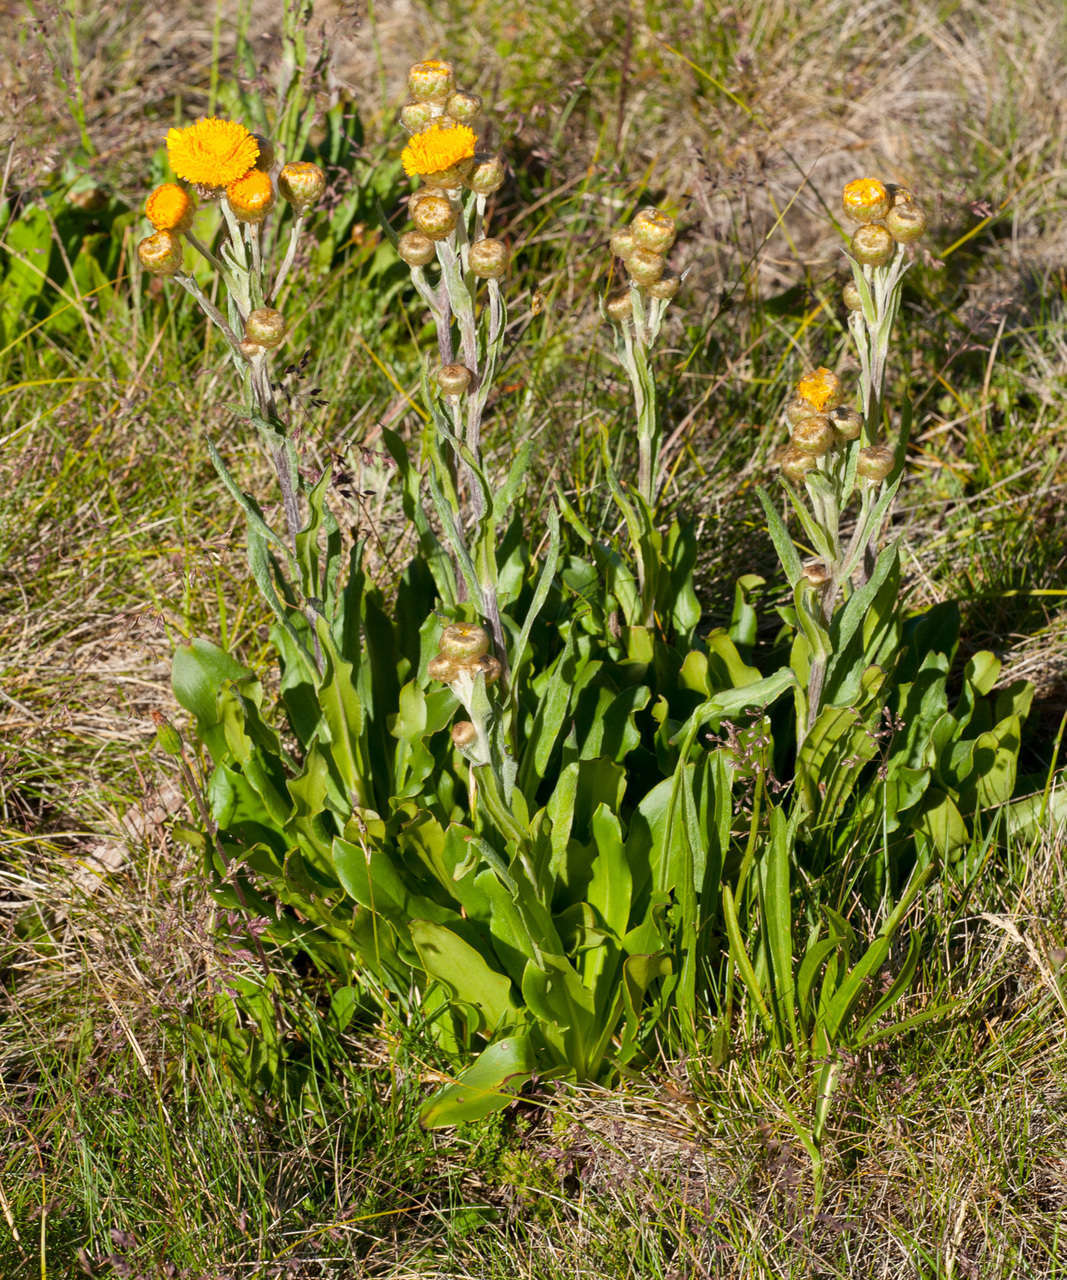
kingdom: Plantae
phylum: Tracheophyta
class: Magnoliopsida
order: Asterales
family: Asteraceae
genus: Podolepis
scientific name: Podolepis robusta
